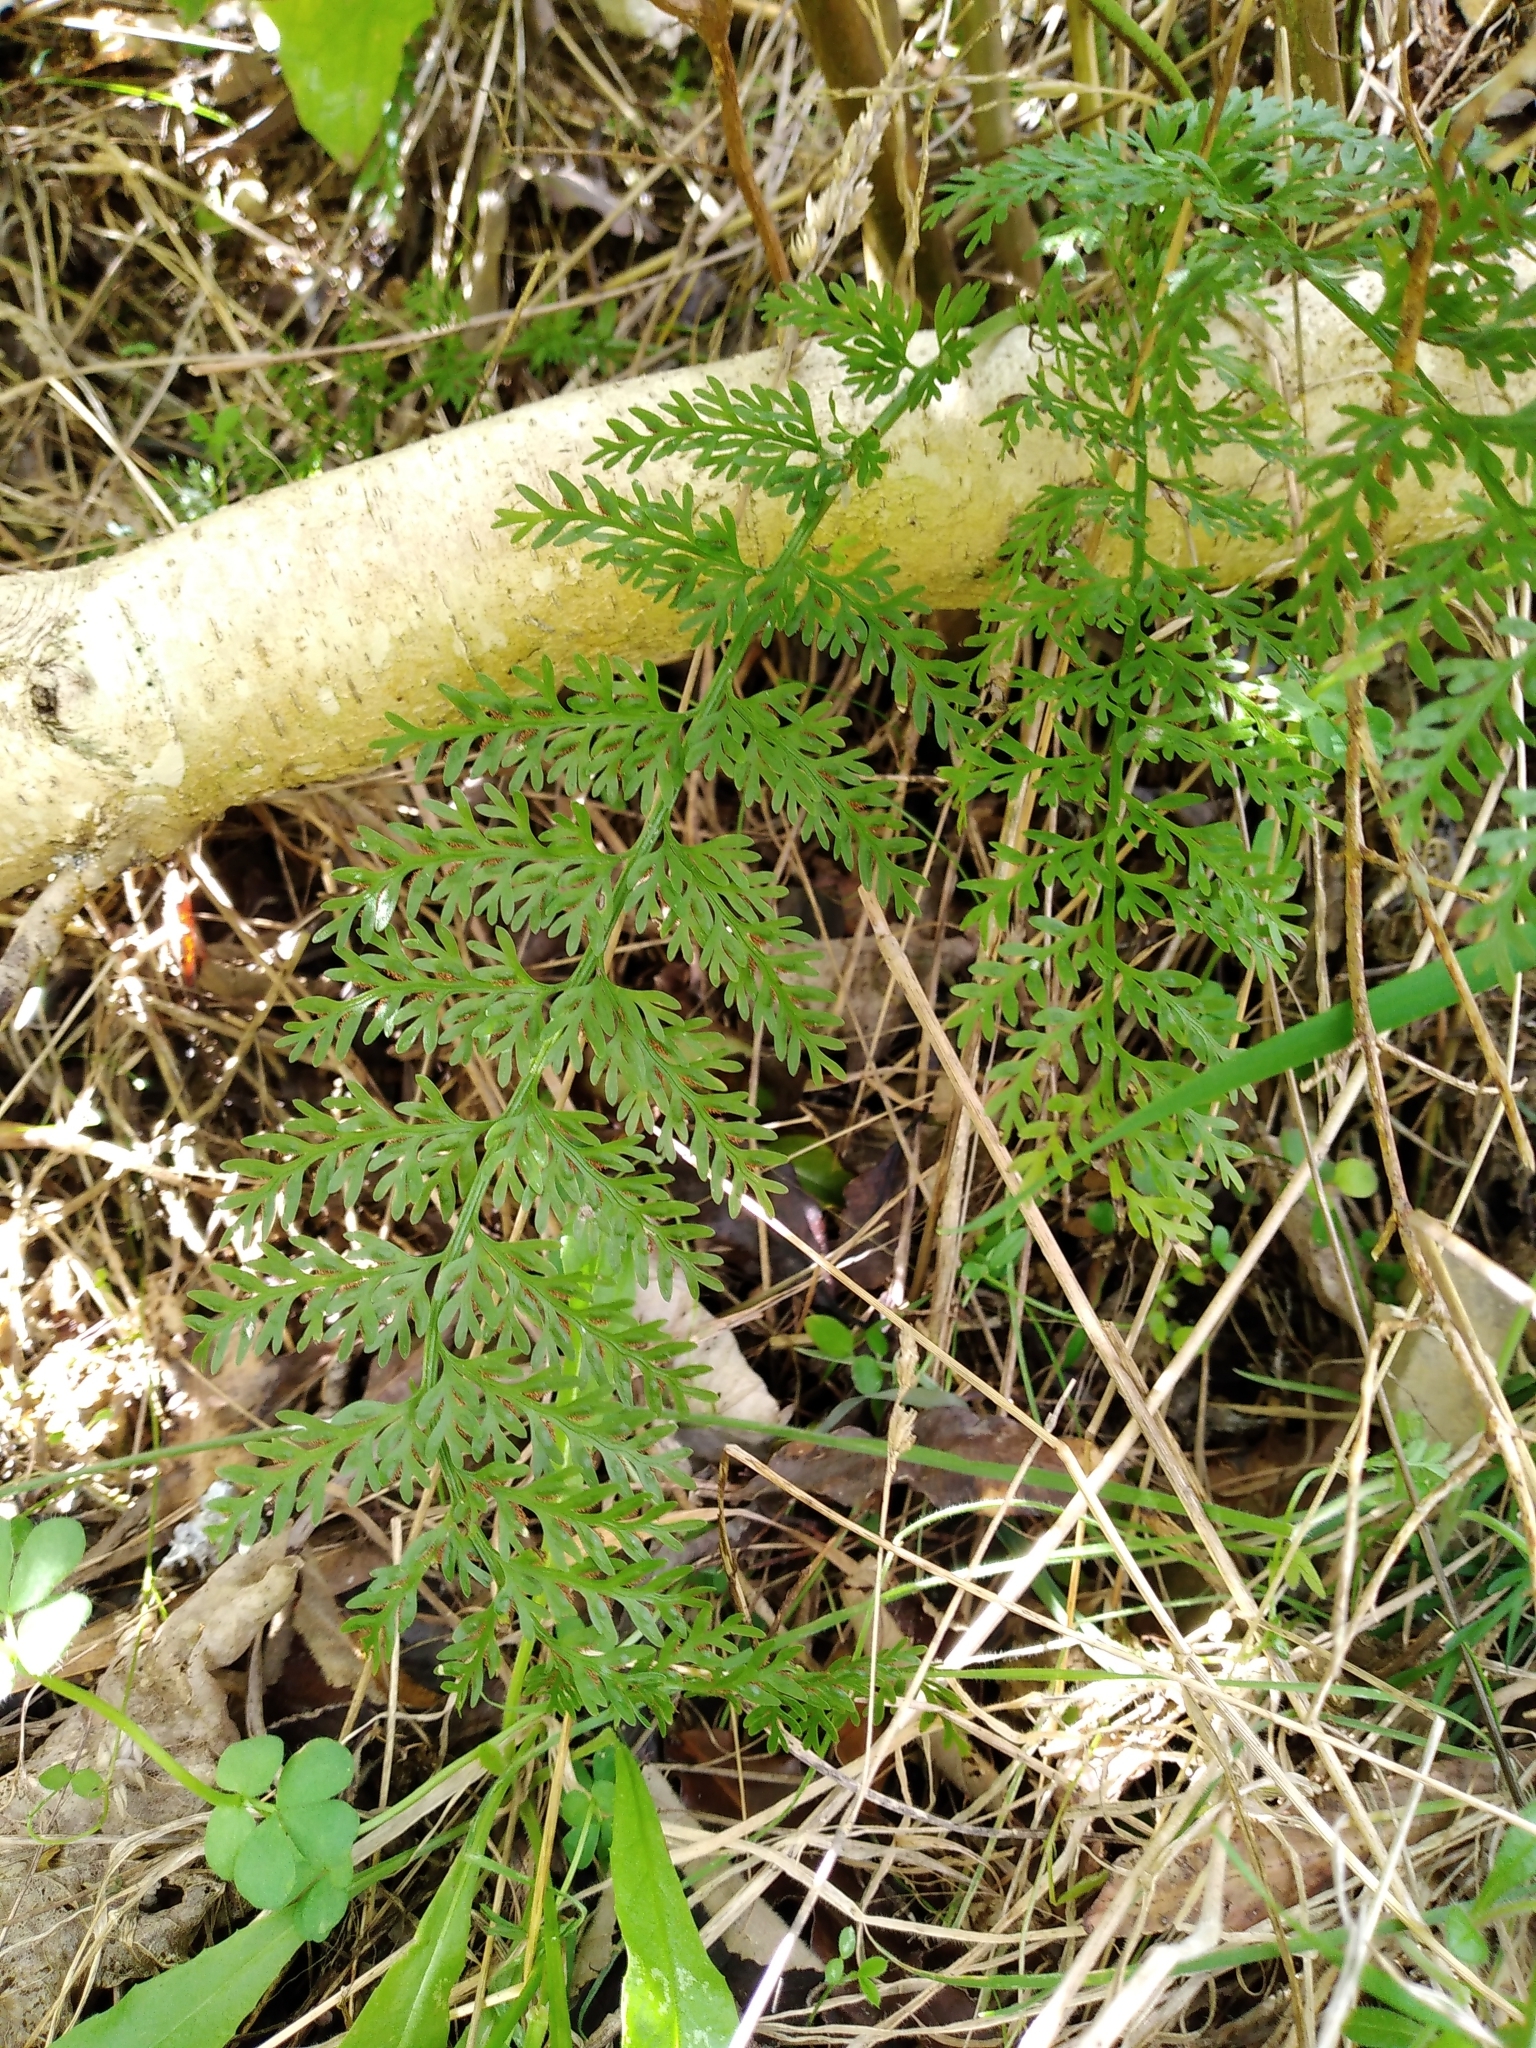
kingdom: Plantae
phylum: Tracheophyta
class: Polypodiopsida
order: Polypodiales
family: Aspleniaceae
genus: Asplenium
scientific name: Asplenium
